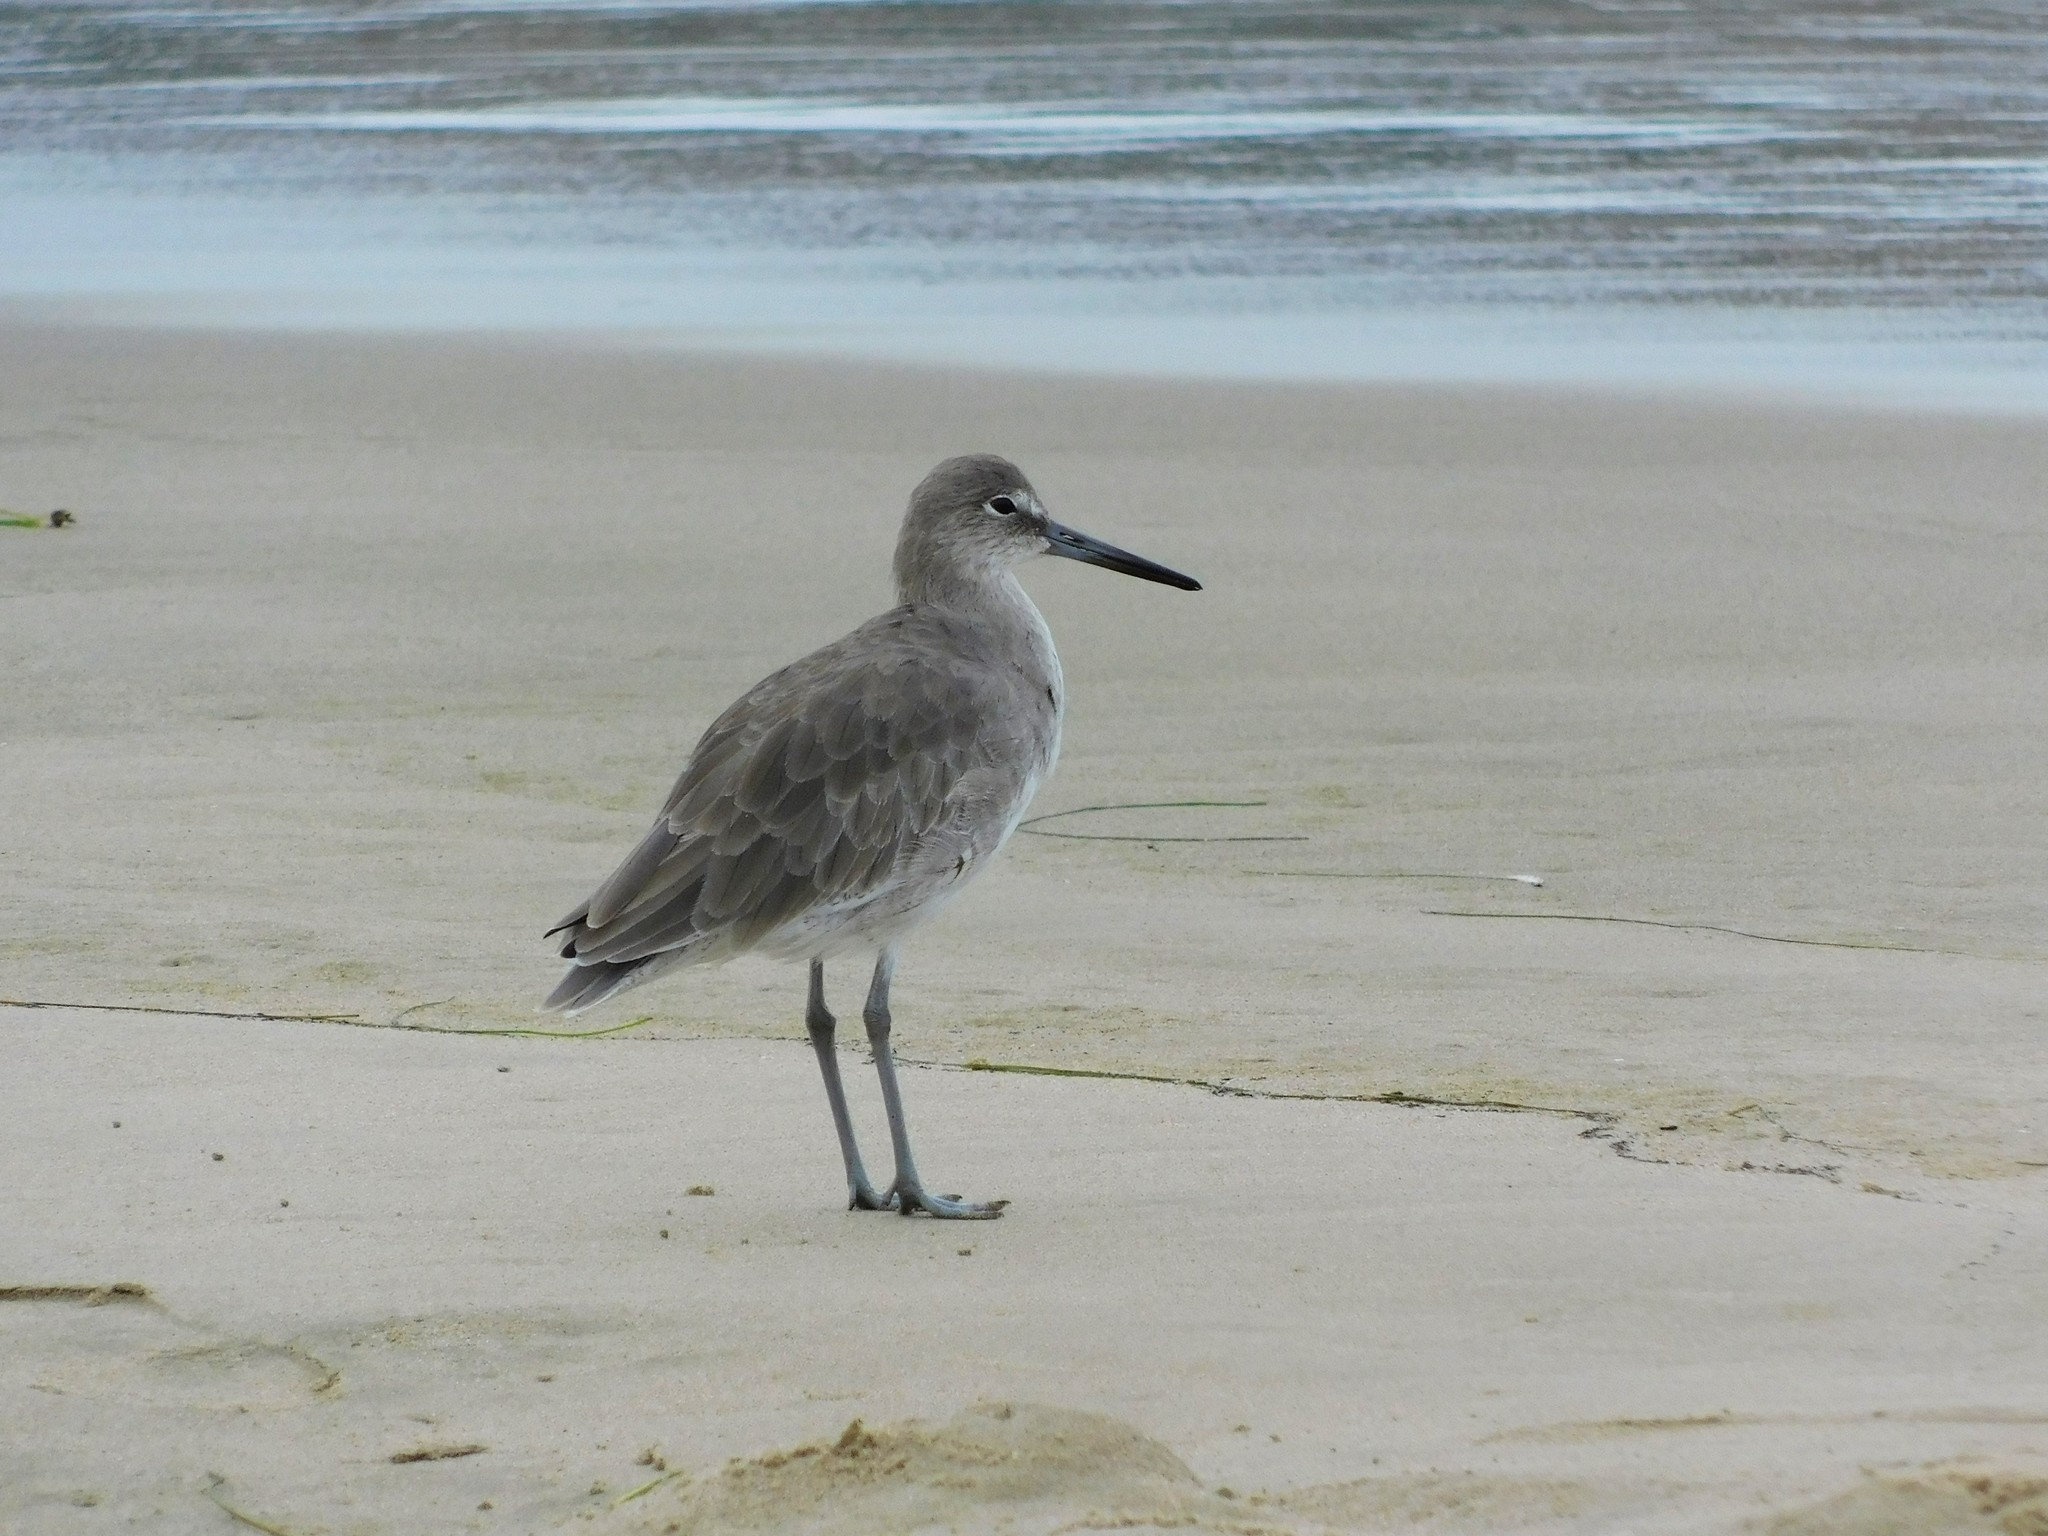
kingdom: Animalia
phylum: Chordata
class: Aves
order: Charadriiformes
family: Scolopacidae
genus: Tringa
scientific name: Tringa semipalmata
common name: Willet
